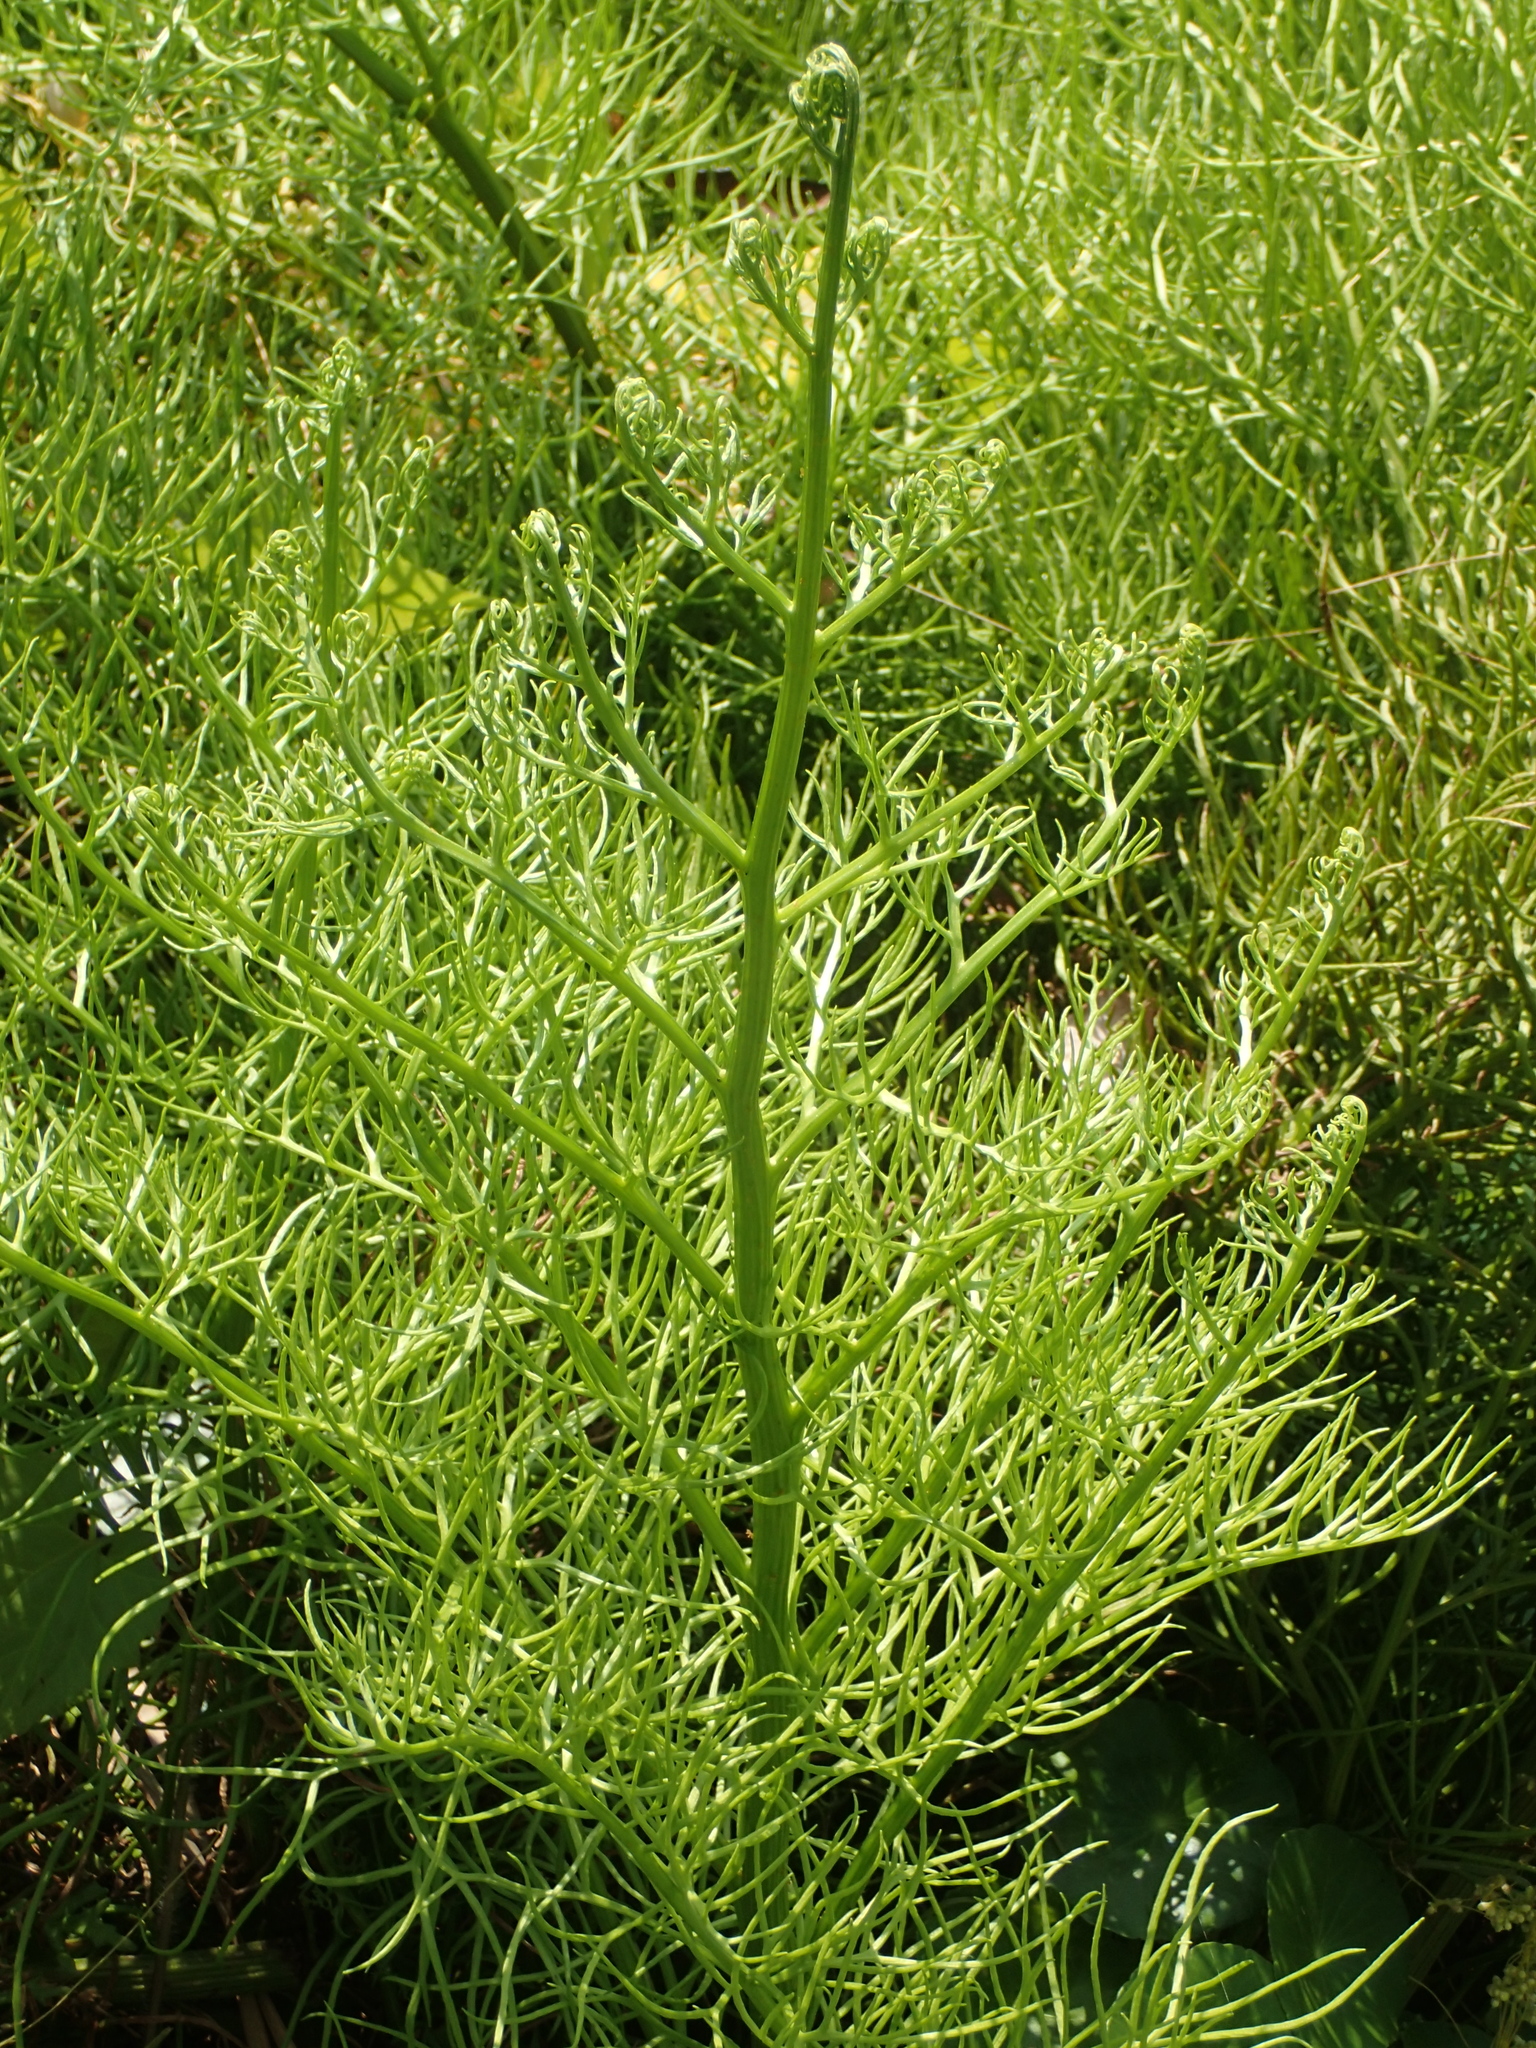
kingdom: Plantae
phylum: Tracheophyta
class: Polypodiopsida
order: Polypodiales
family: Pteridaceae
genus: Ceratopteris
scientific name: Ceratopteris thalictroides
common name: Water fern
